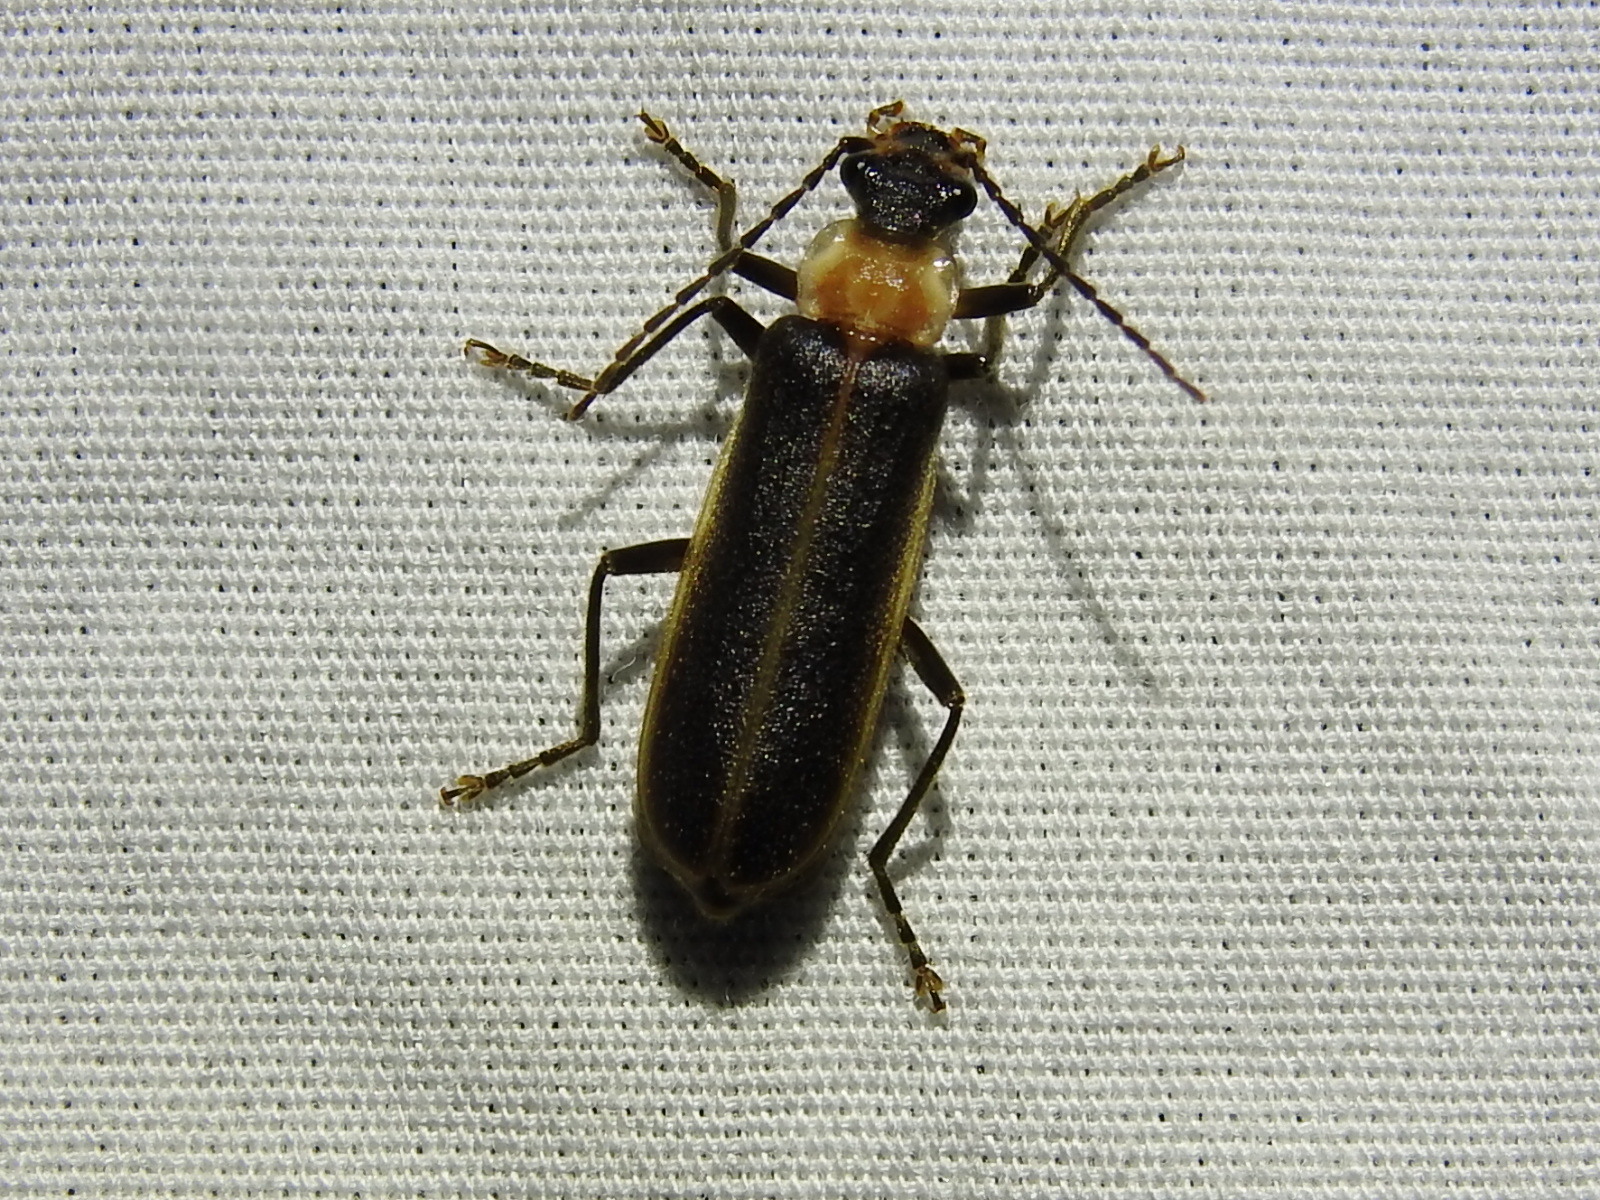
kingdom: Animalia
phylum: Arthropoda
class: Insecta
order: Coleoptera
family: Cantharidae
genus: Podabrus
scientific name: Podabrus flavicollis
